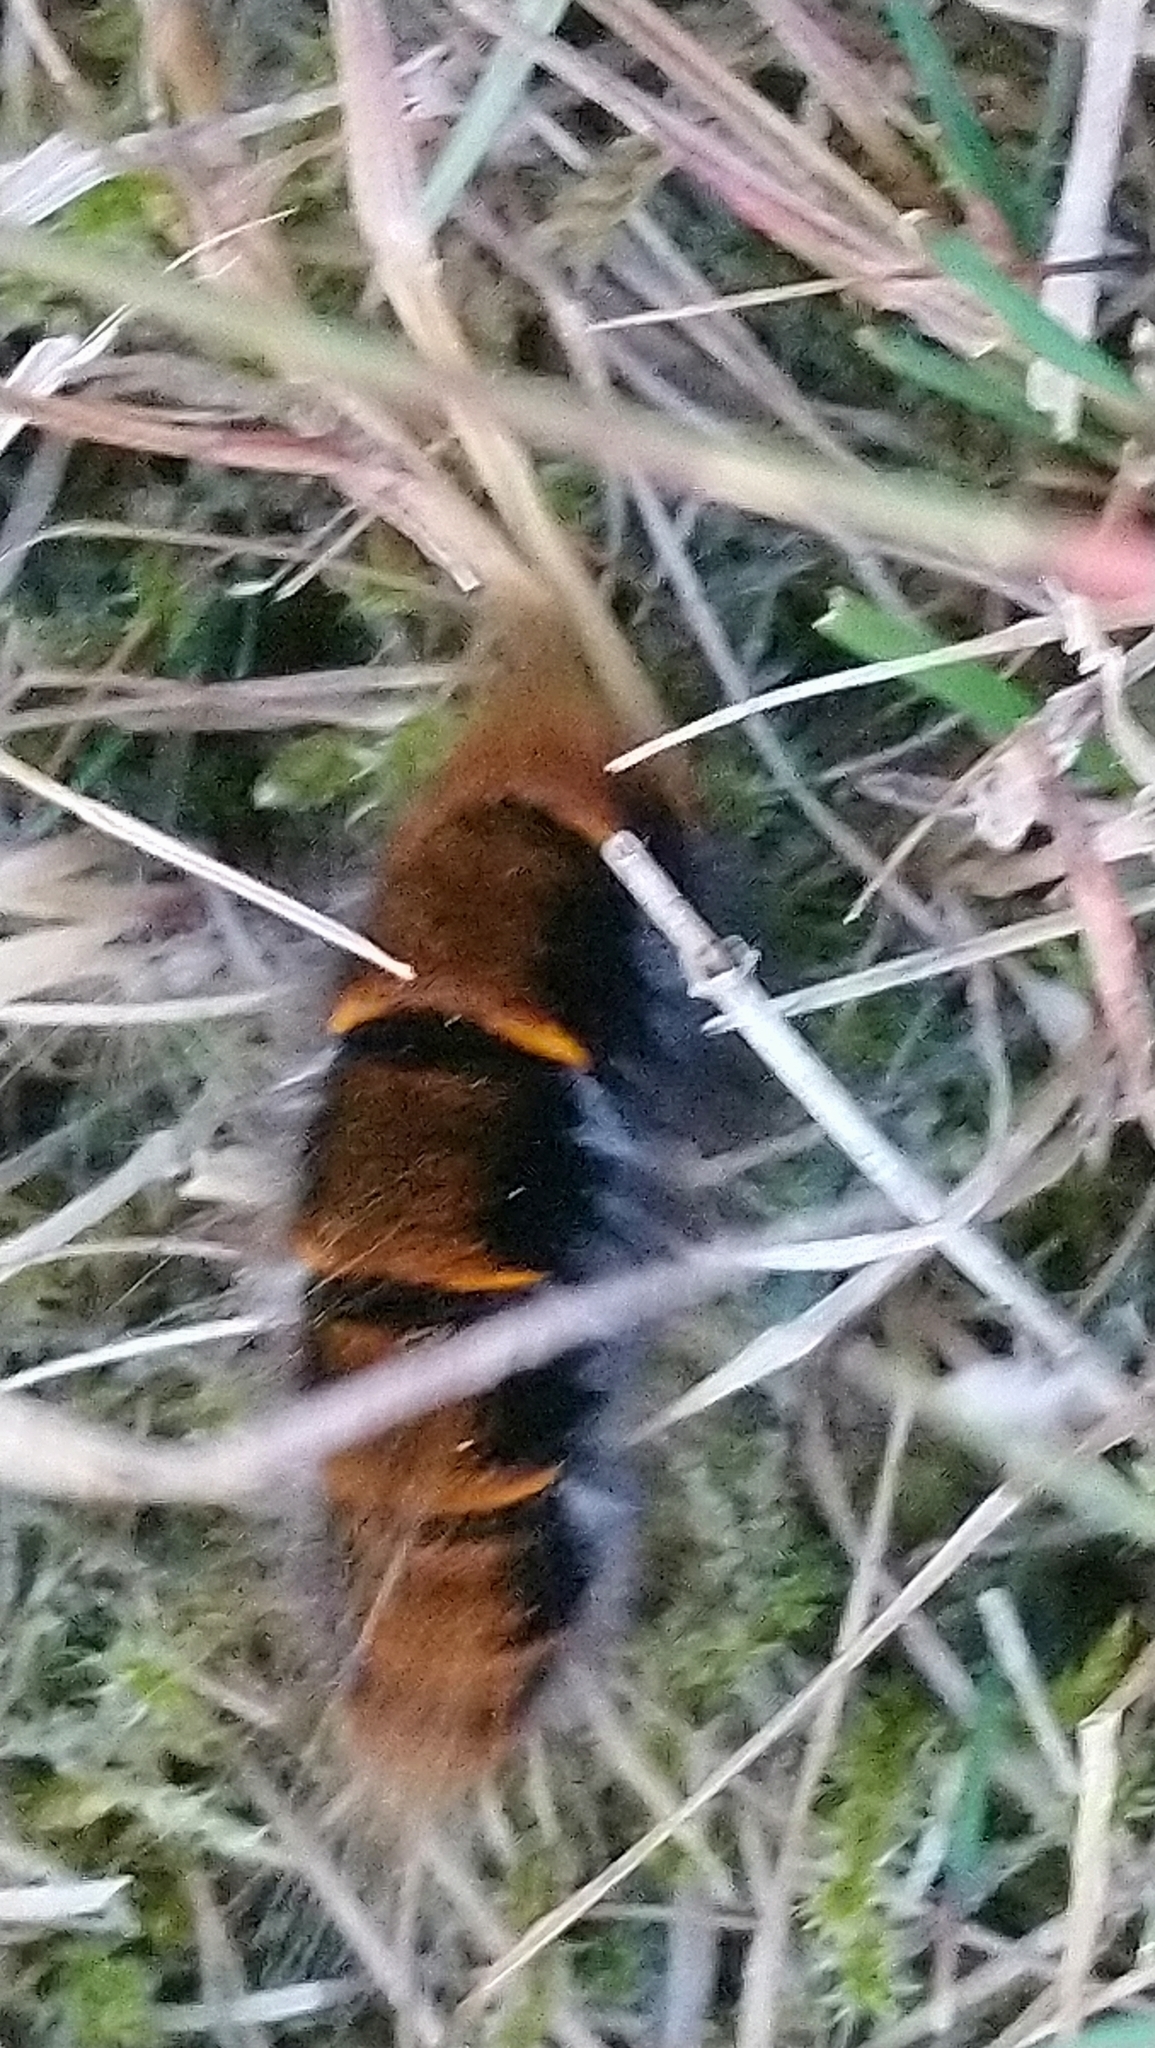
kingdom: Animalia
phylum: Arthropoda
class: Insecta
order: Lepidoptera
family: Lasiocampidae
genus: Macrothylacia
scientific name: Macrothylacia rubi
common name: Fox moth
